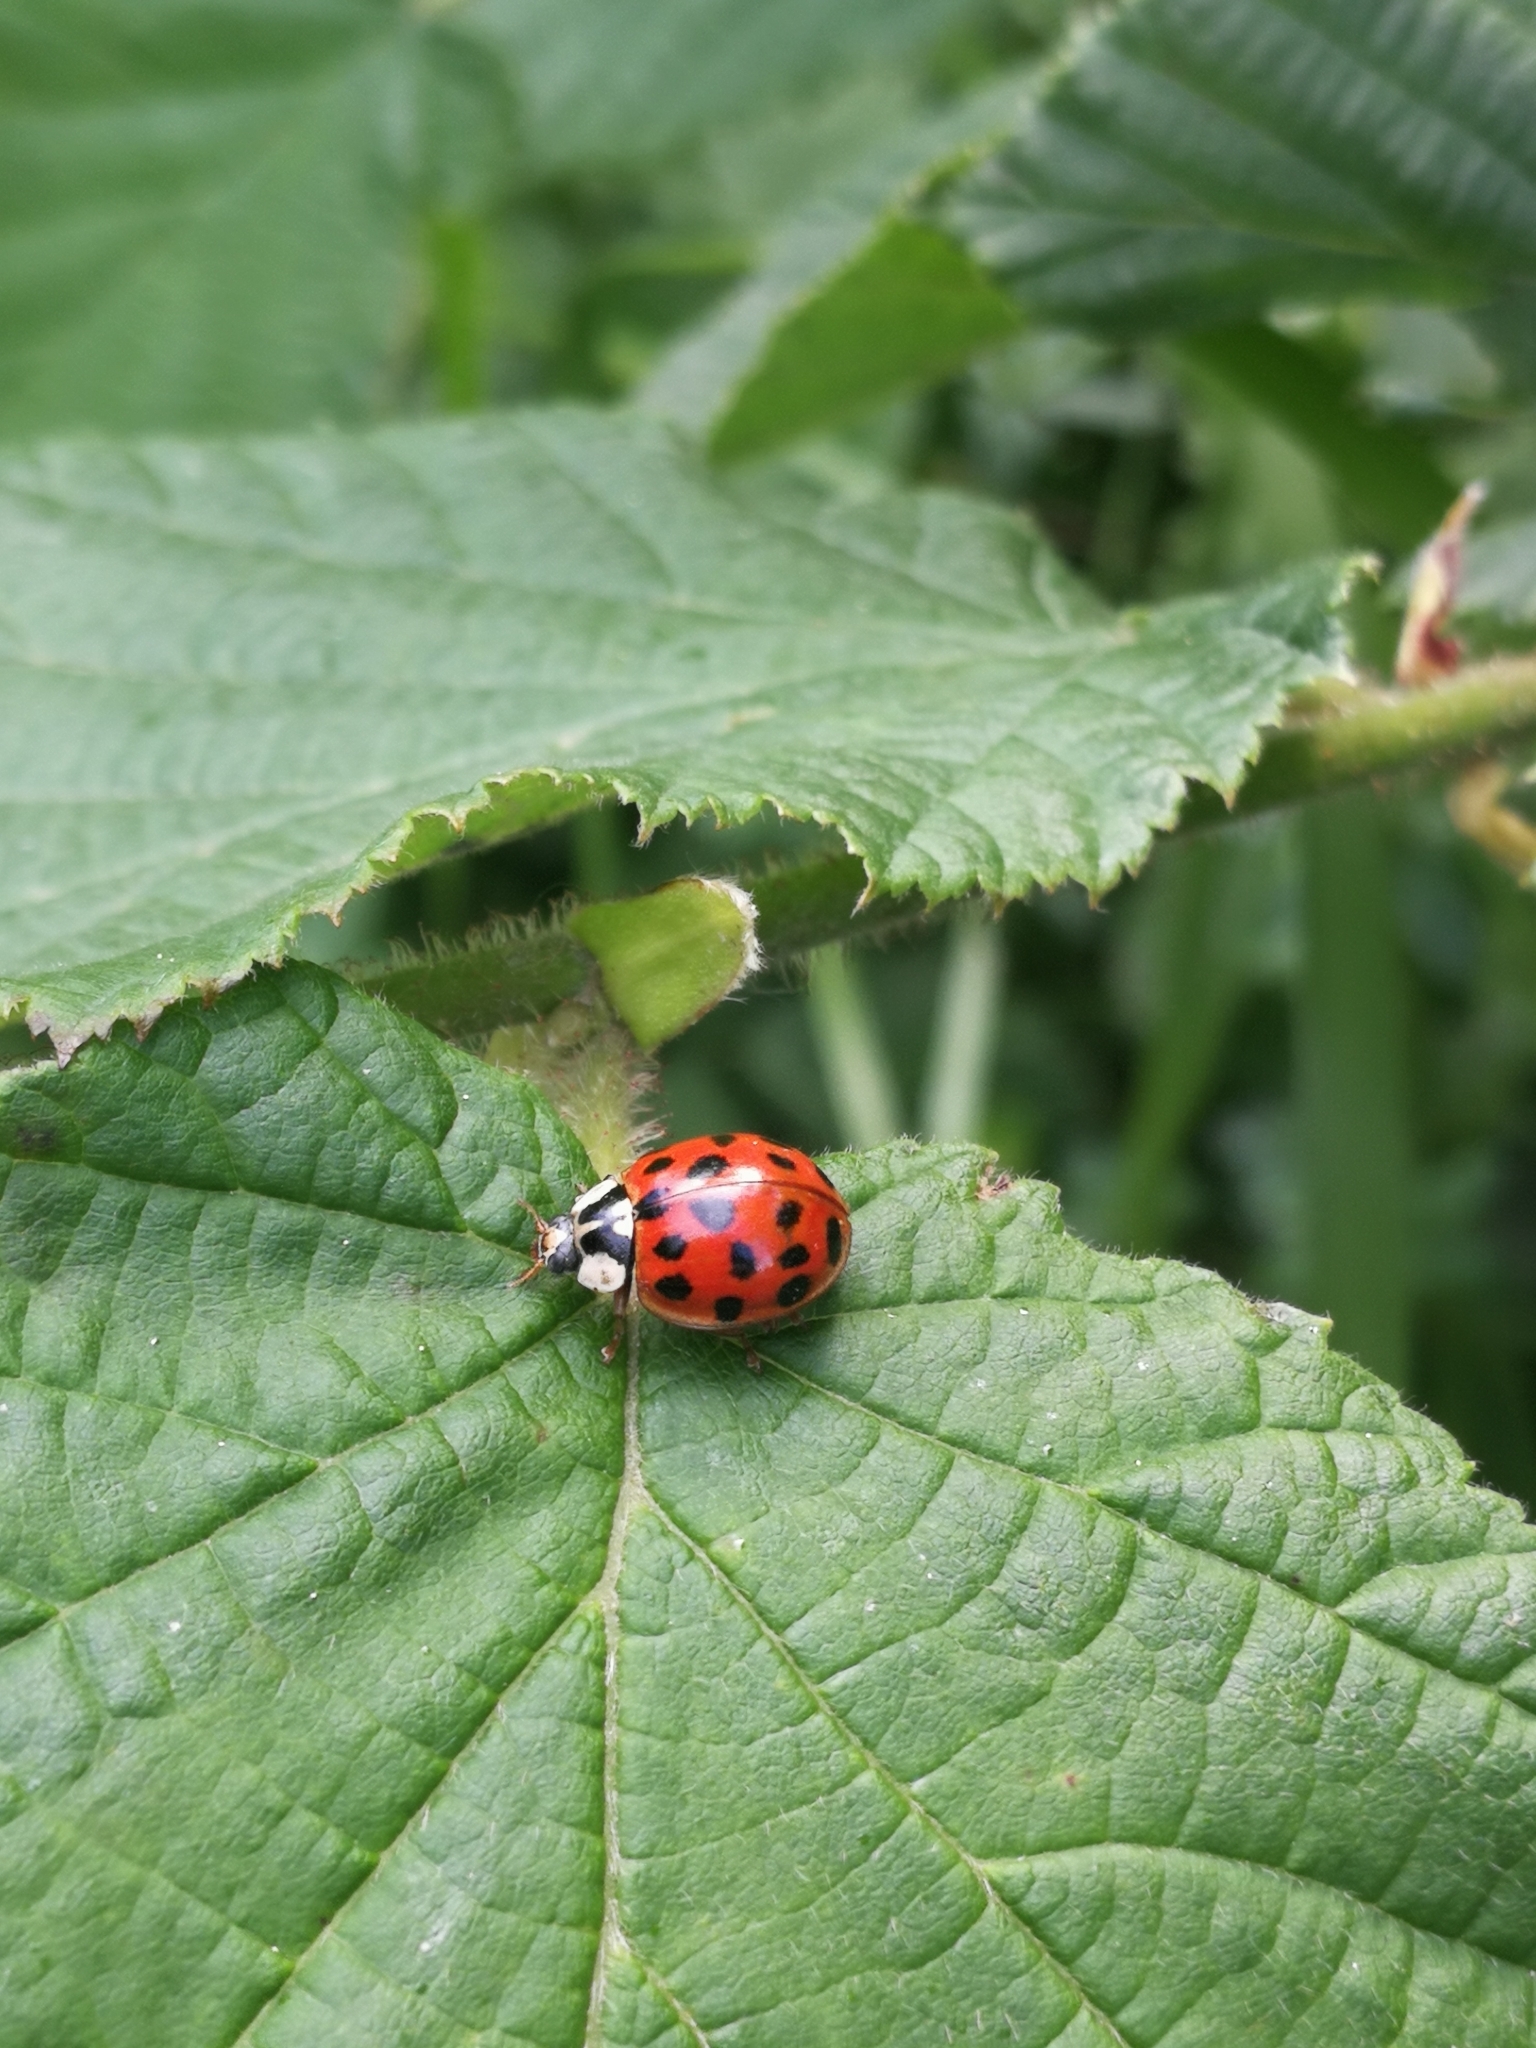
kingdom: Animalia
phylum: Arthropoda
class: Insecta
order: Coleoptera
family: Coccinellidae
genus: Harmonia
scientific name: Harmonia axyridis
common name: Harlequin ladybird
